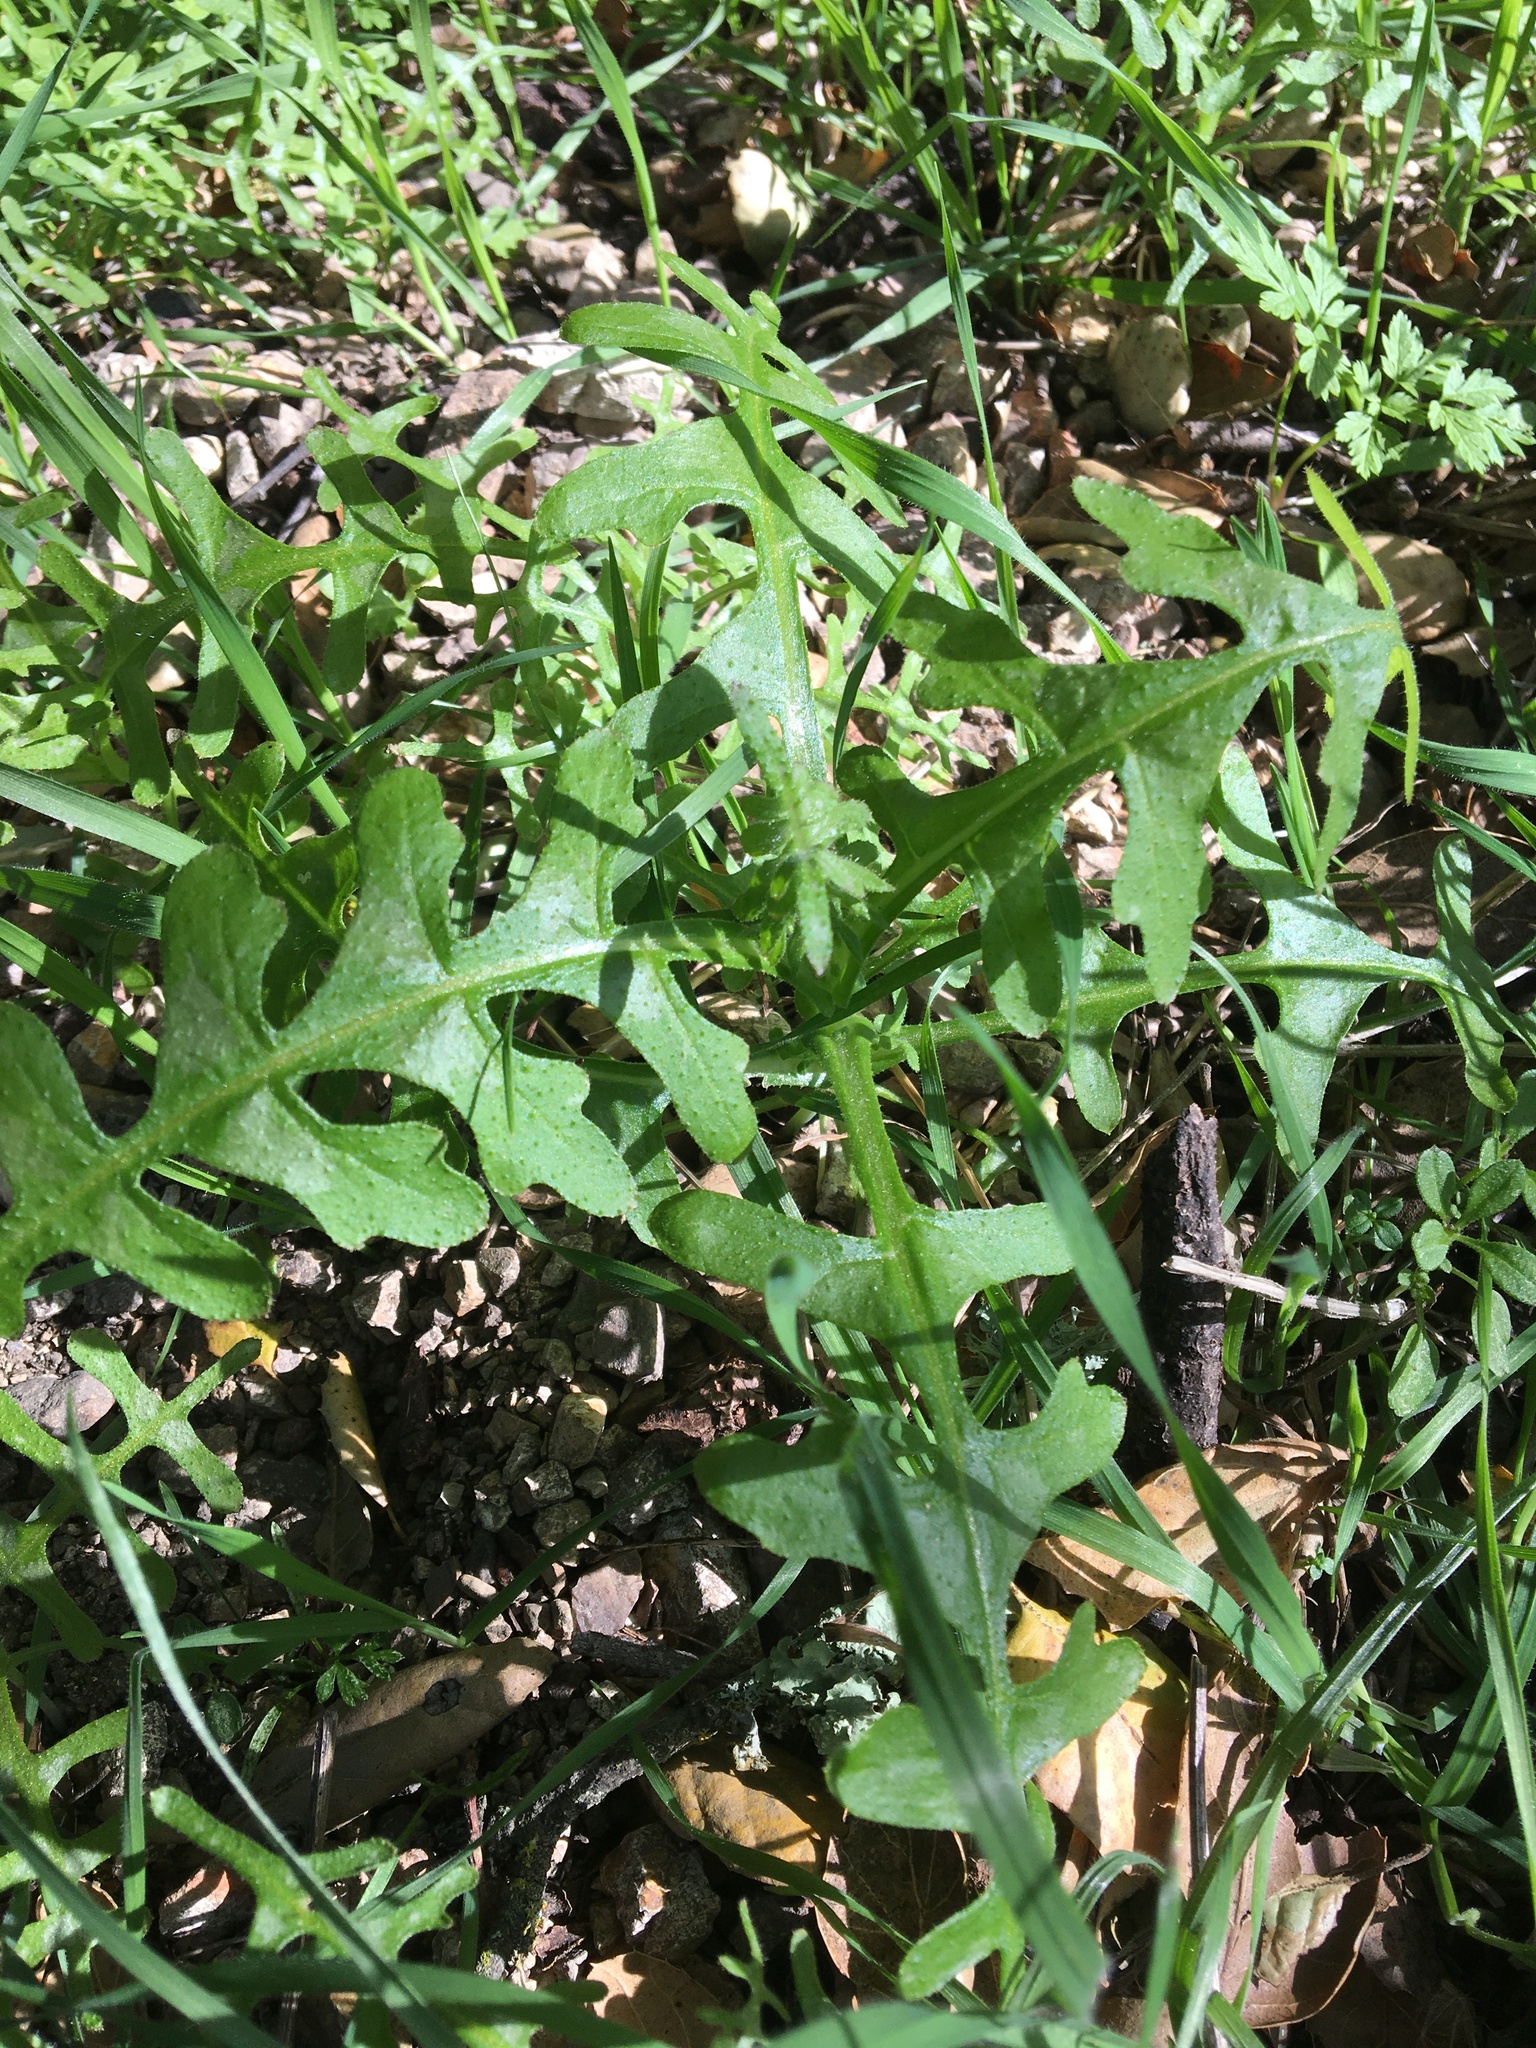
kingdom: Plantae
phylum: Tracheophyta
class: Magnoliopsida
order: Boraginales
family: Hydrophyllaceae
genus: Pholistoma
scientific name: Pholistoma auritum
